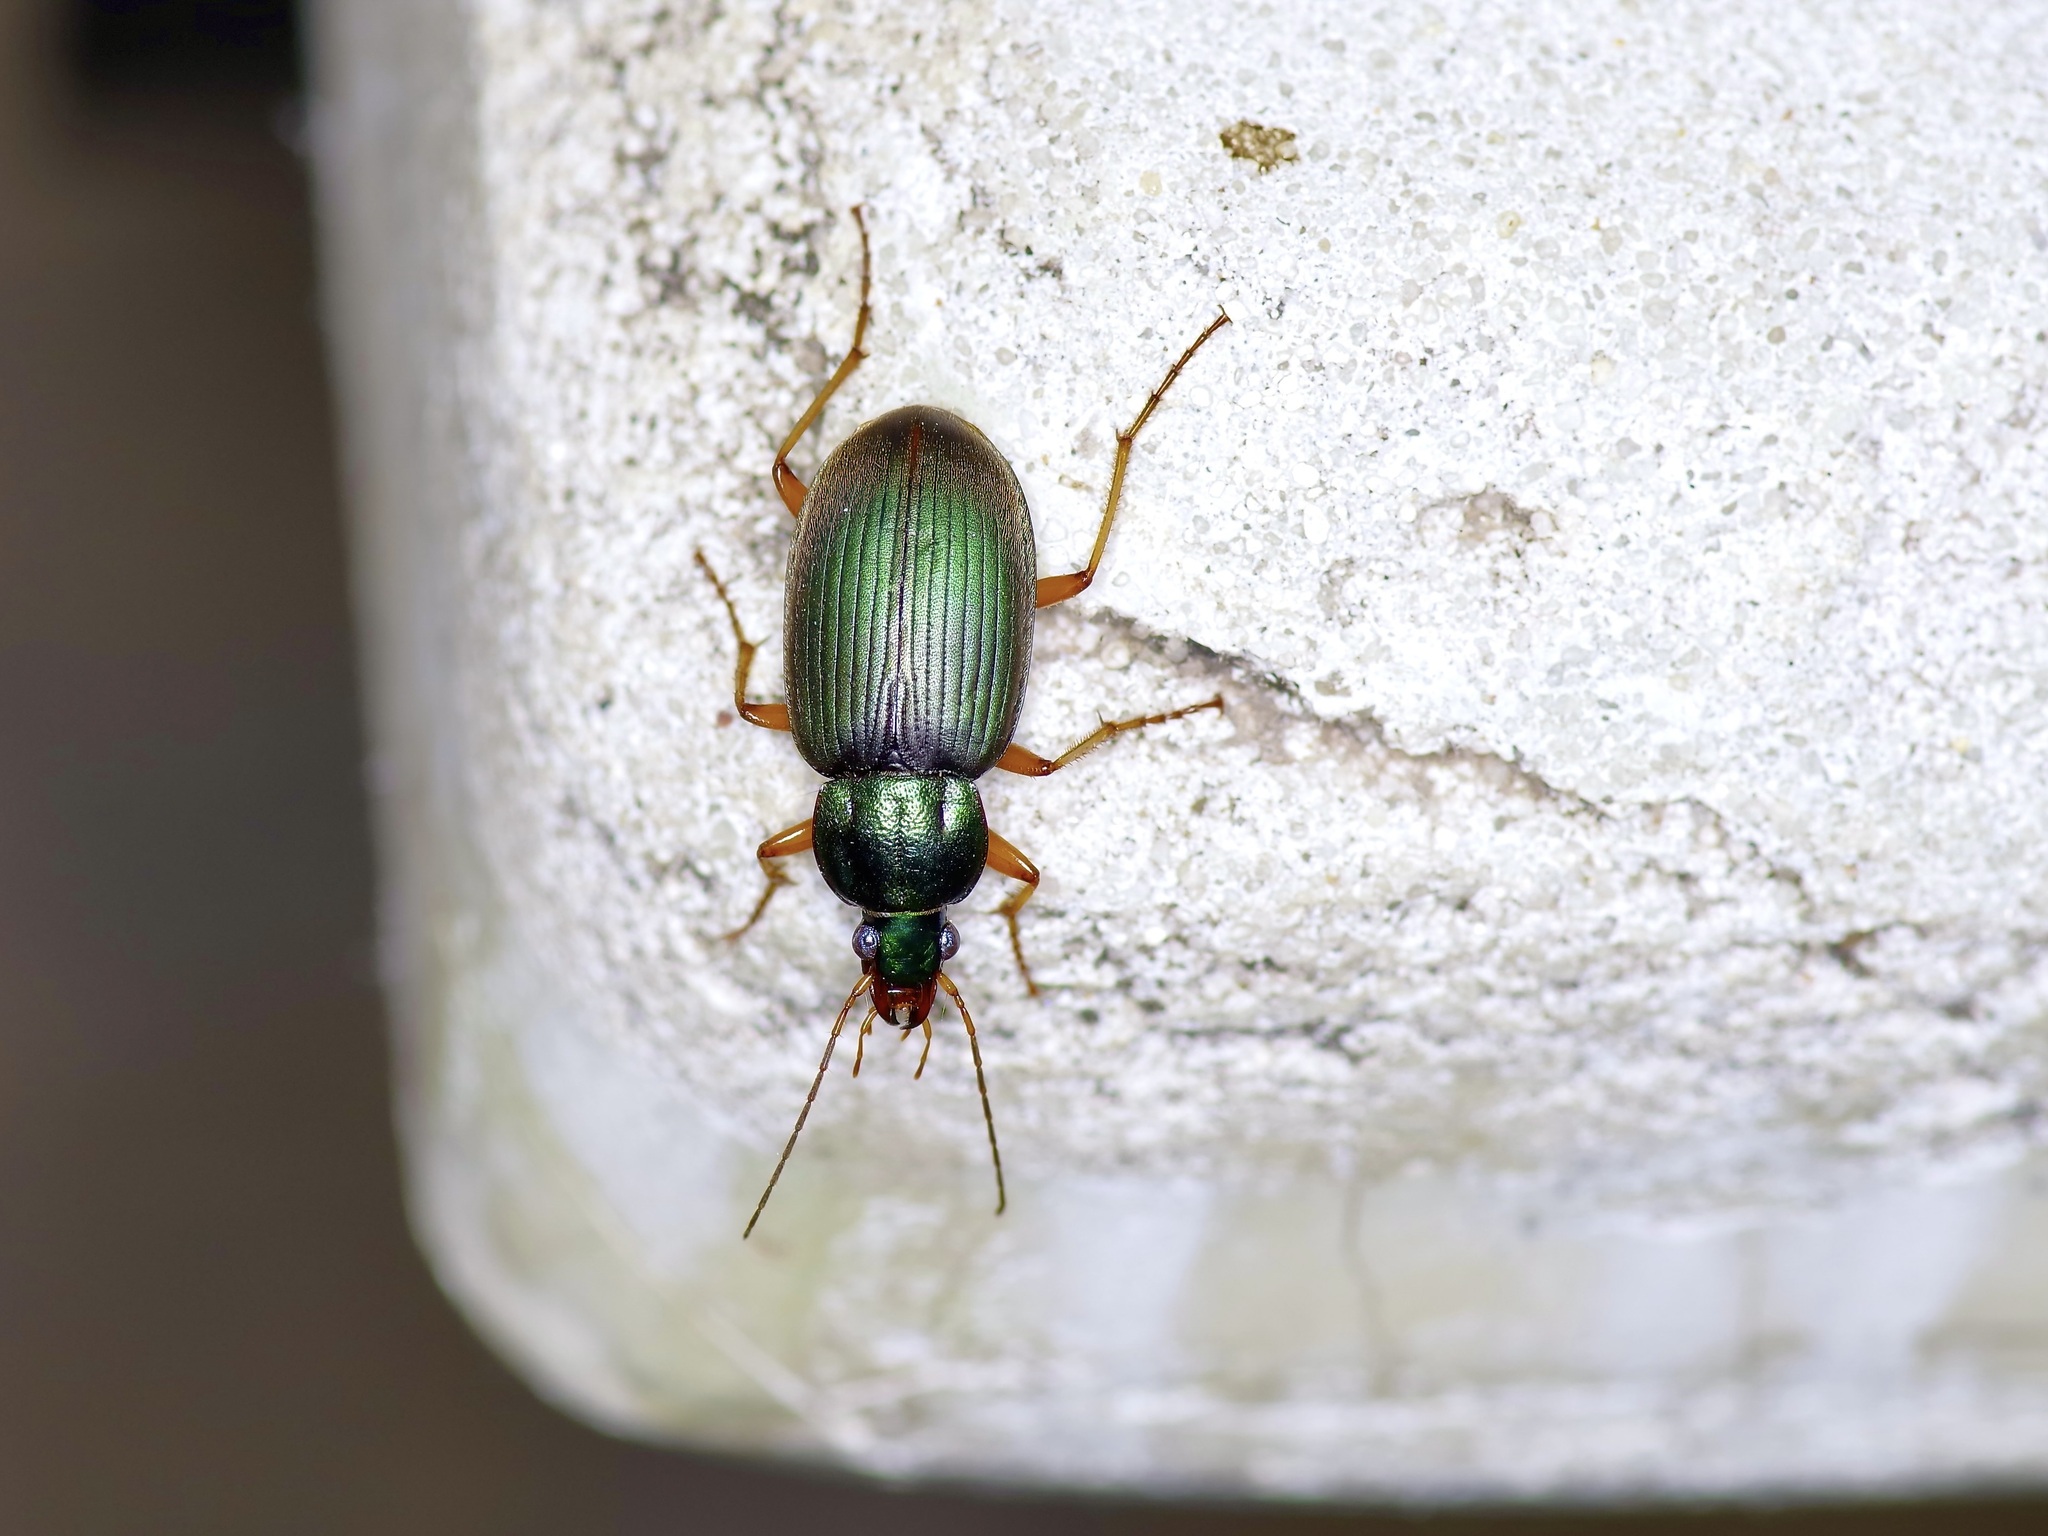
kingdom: Animalia
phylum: Arthropoda
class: Insecta
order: Coleoptera
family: Carabidae
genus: Chlaenius
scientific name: Chlaenius texanus
